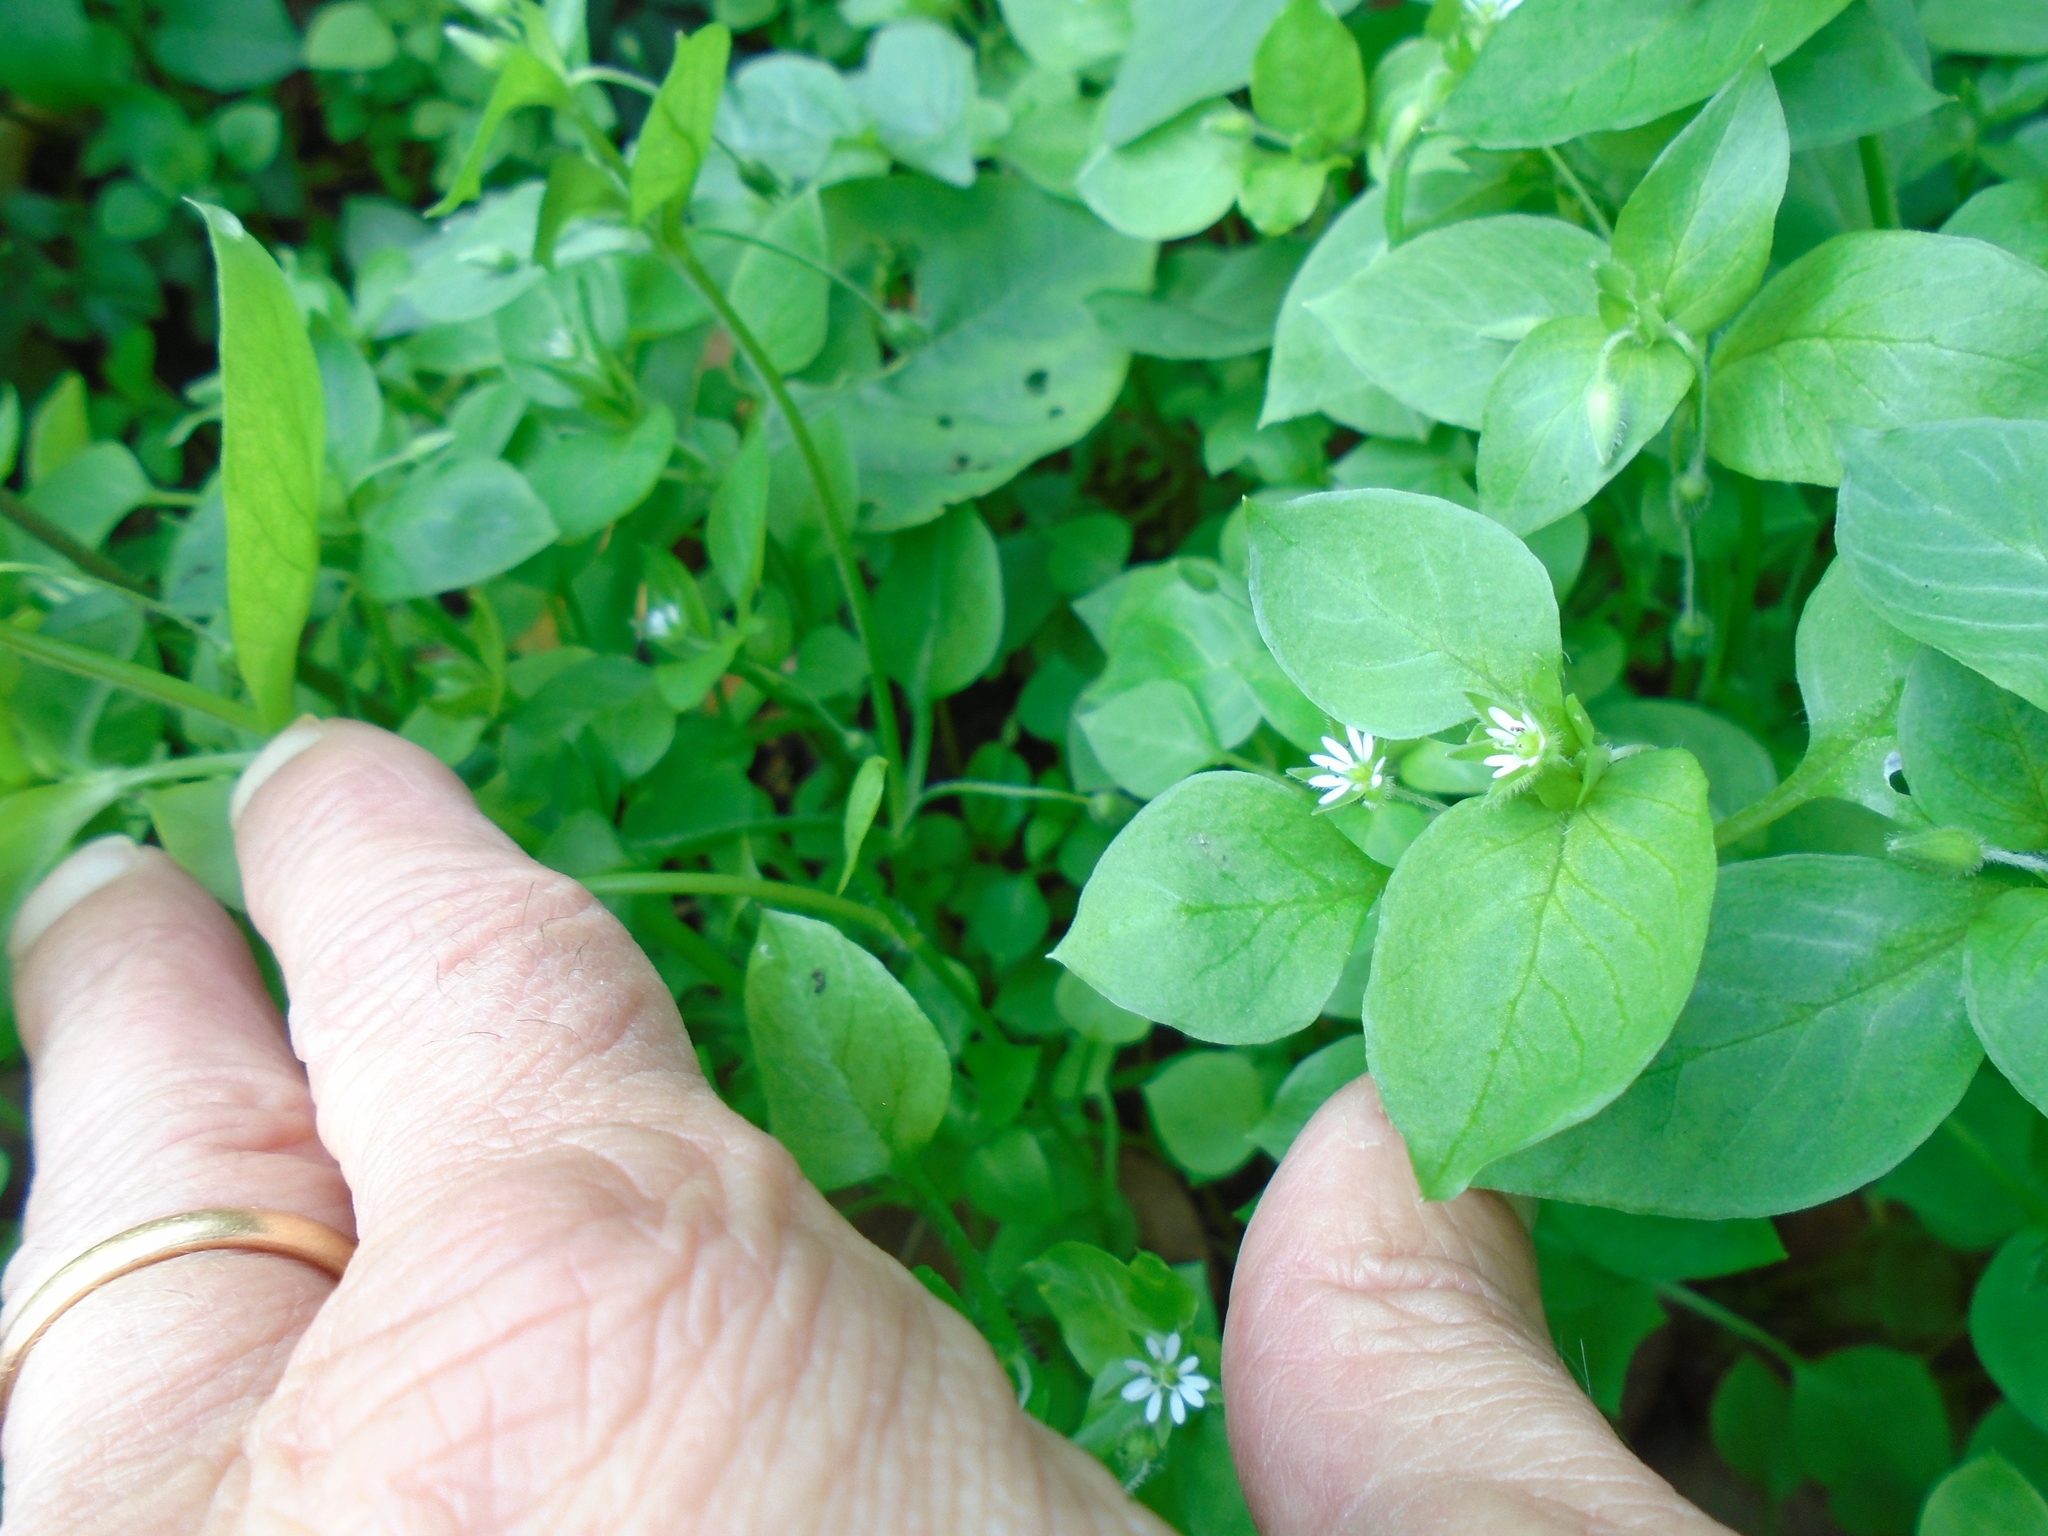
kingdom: Plantae
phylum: Tracheophyta
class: Magnoliopsida
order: Caryophyllales
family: Caryophyllaceae
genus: Stellaria
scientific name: Stellaria media
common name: Common chickweed
